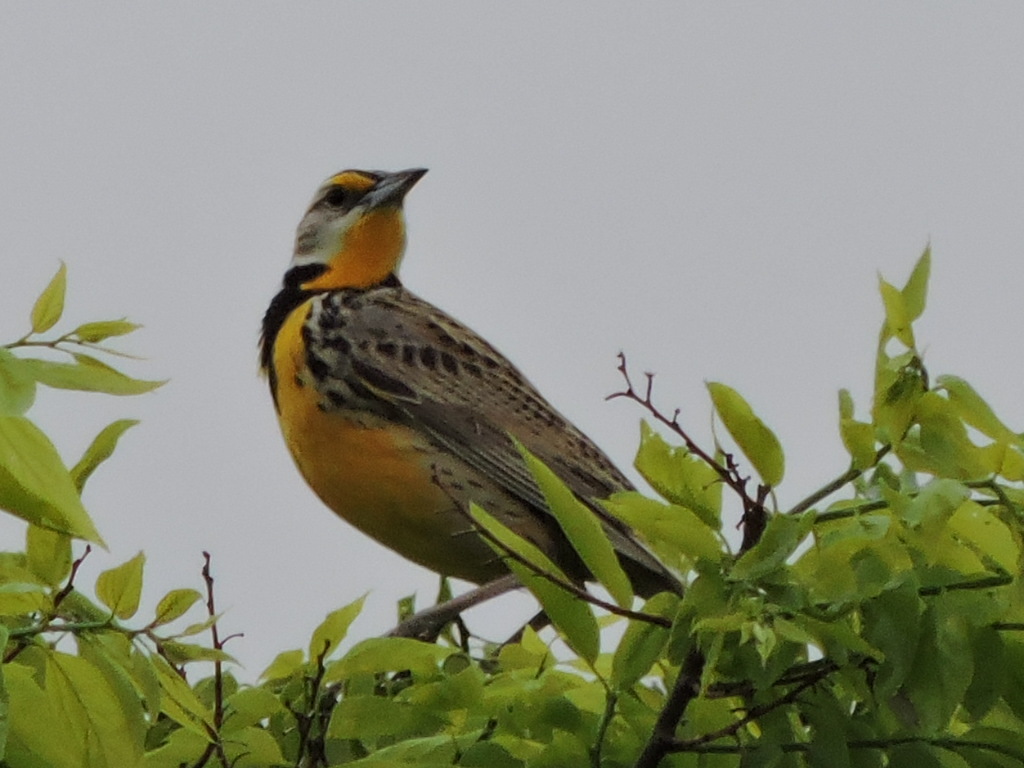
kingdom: Animalia
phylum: Chordata
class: Aves
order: Passeriformes
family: Icteridae
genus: Sturnella
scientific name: Sturnella magna
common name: Eastern meadowlark
